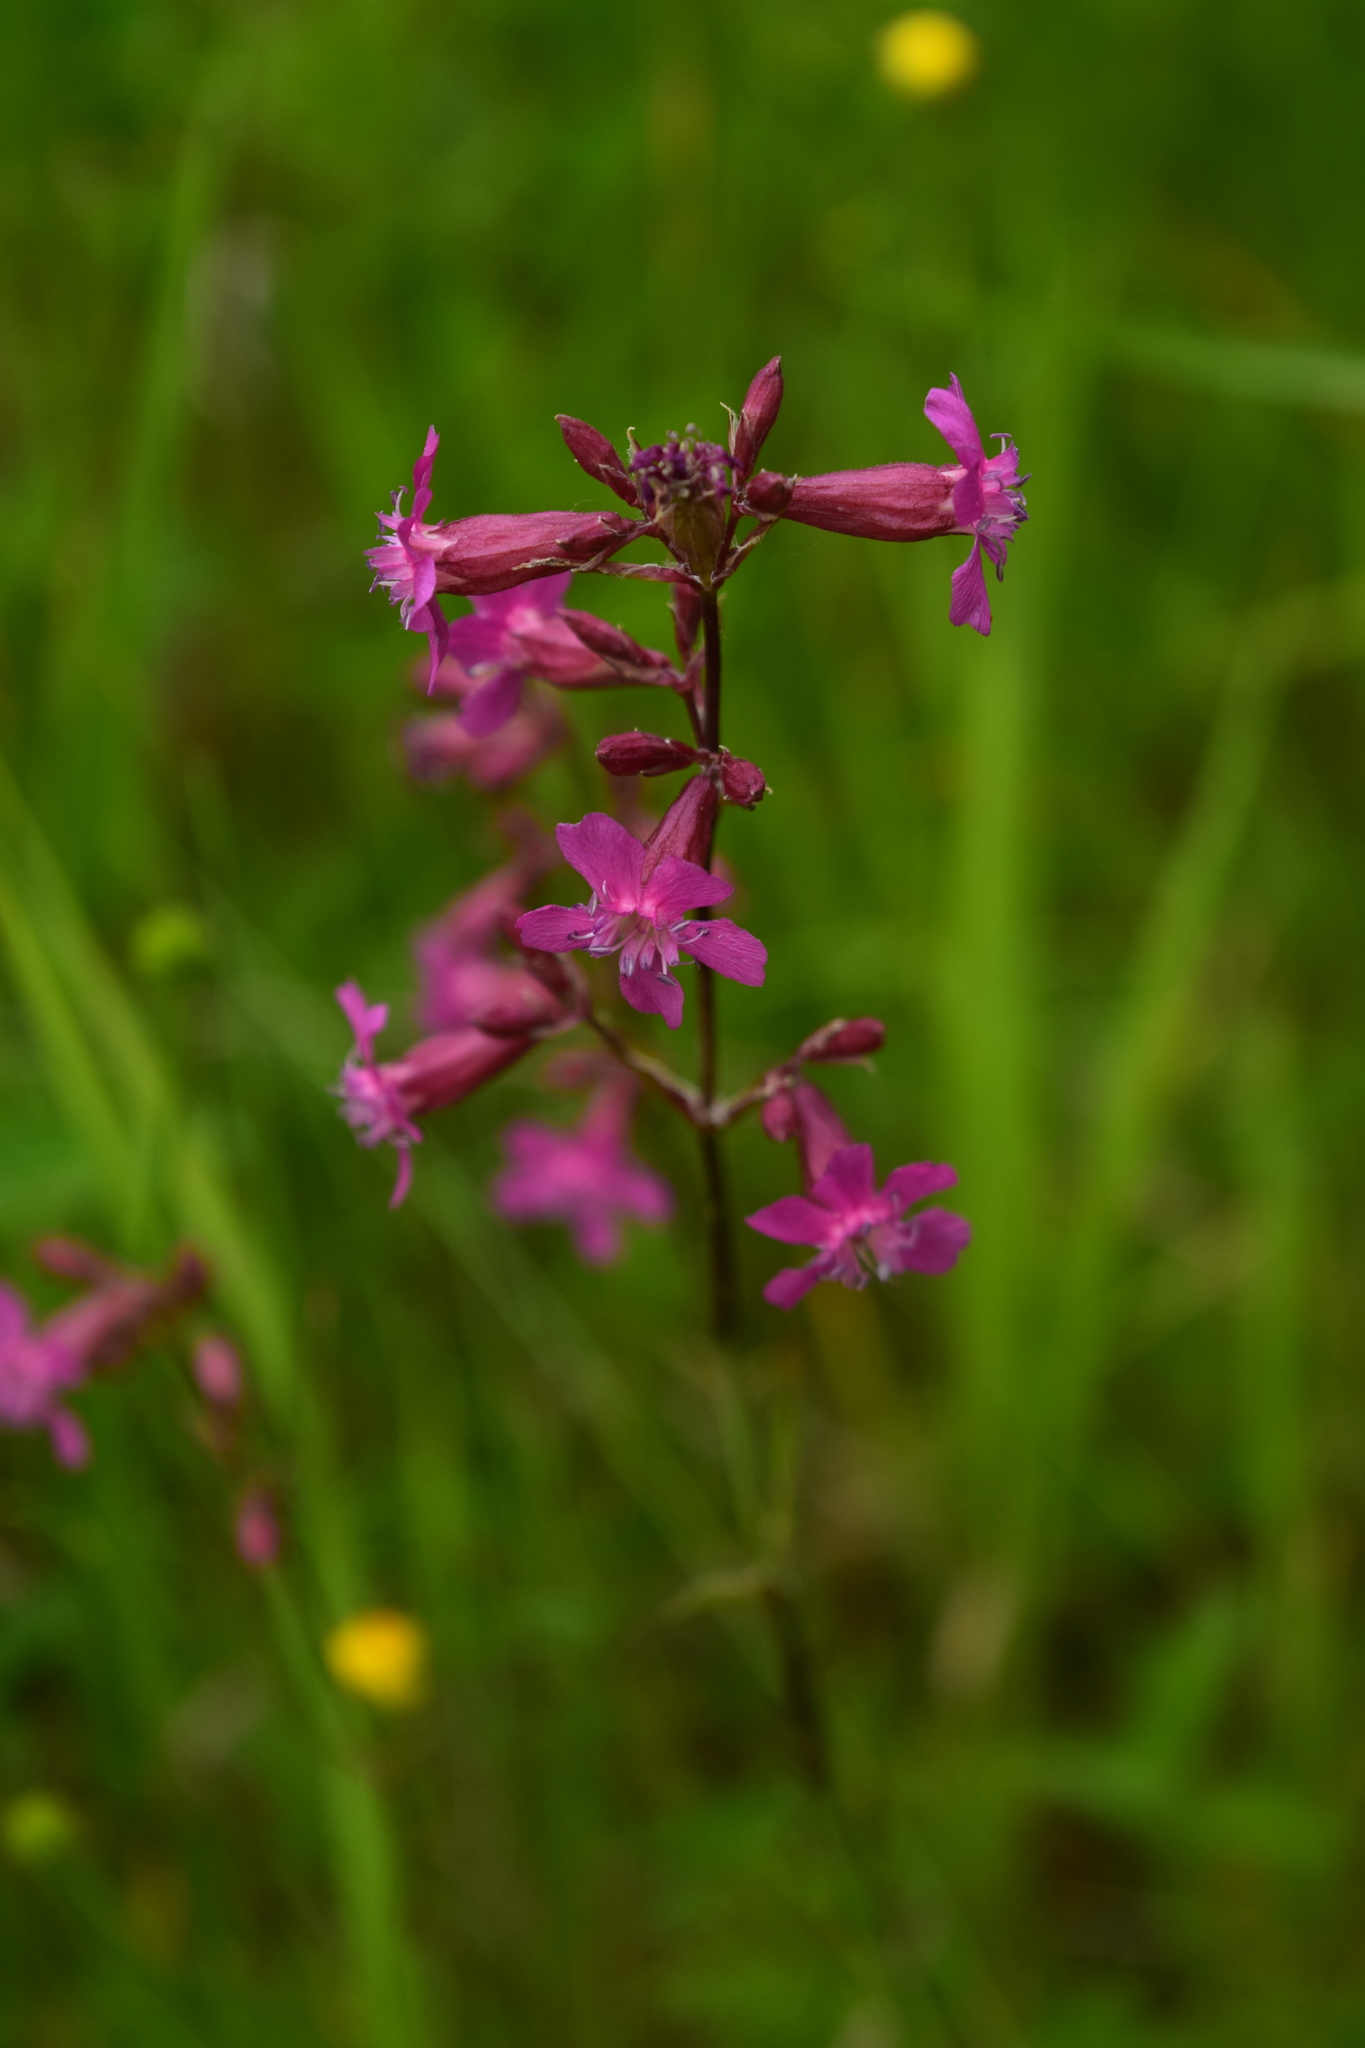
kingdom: Plantae
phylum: Tracheophyta
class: Magnoliopsida
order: Caryophyllales
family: Caryophyllaceae
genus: Viscaria
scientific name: Viscaria vulgaris
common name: Clammy campion
